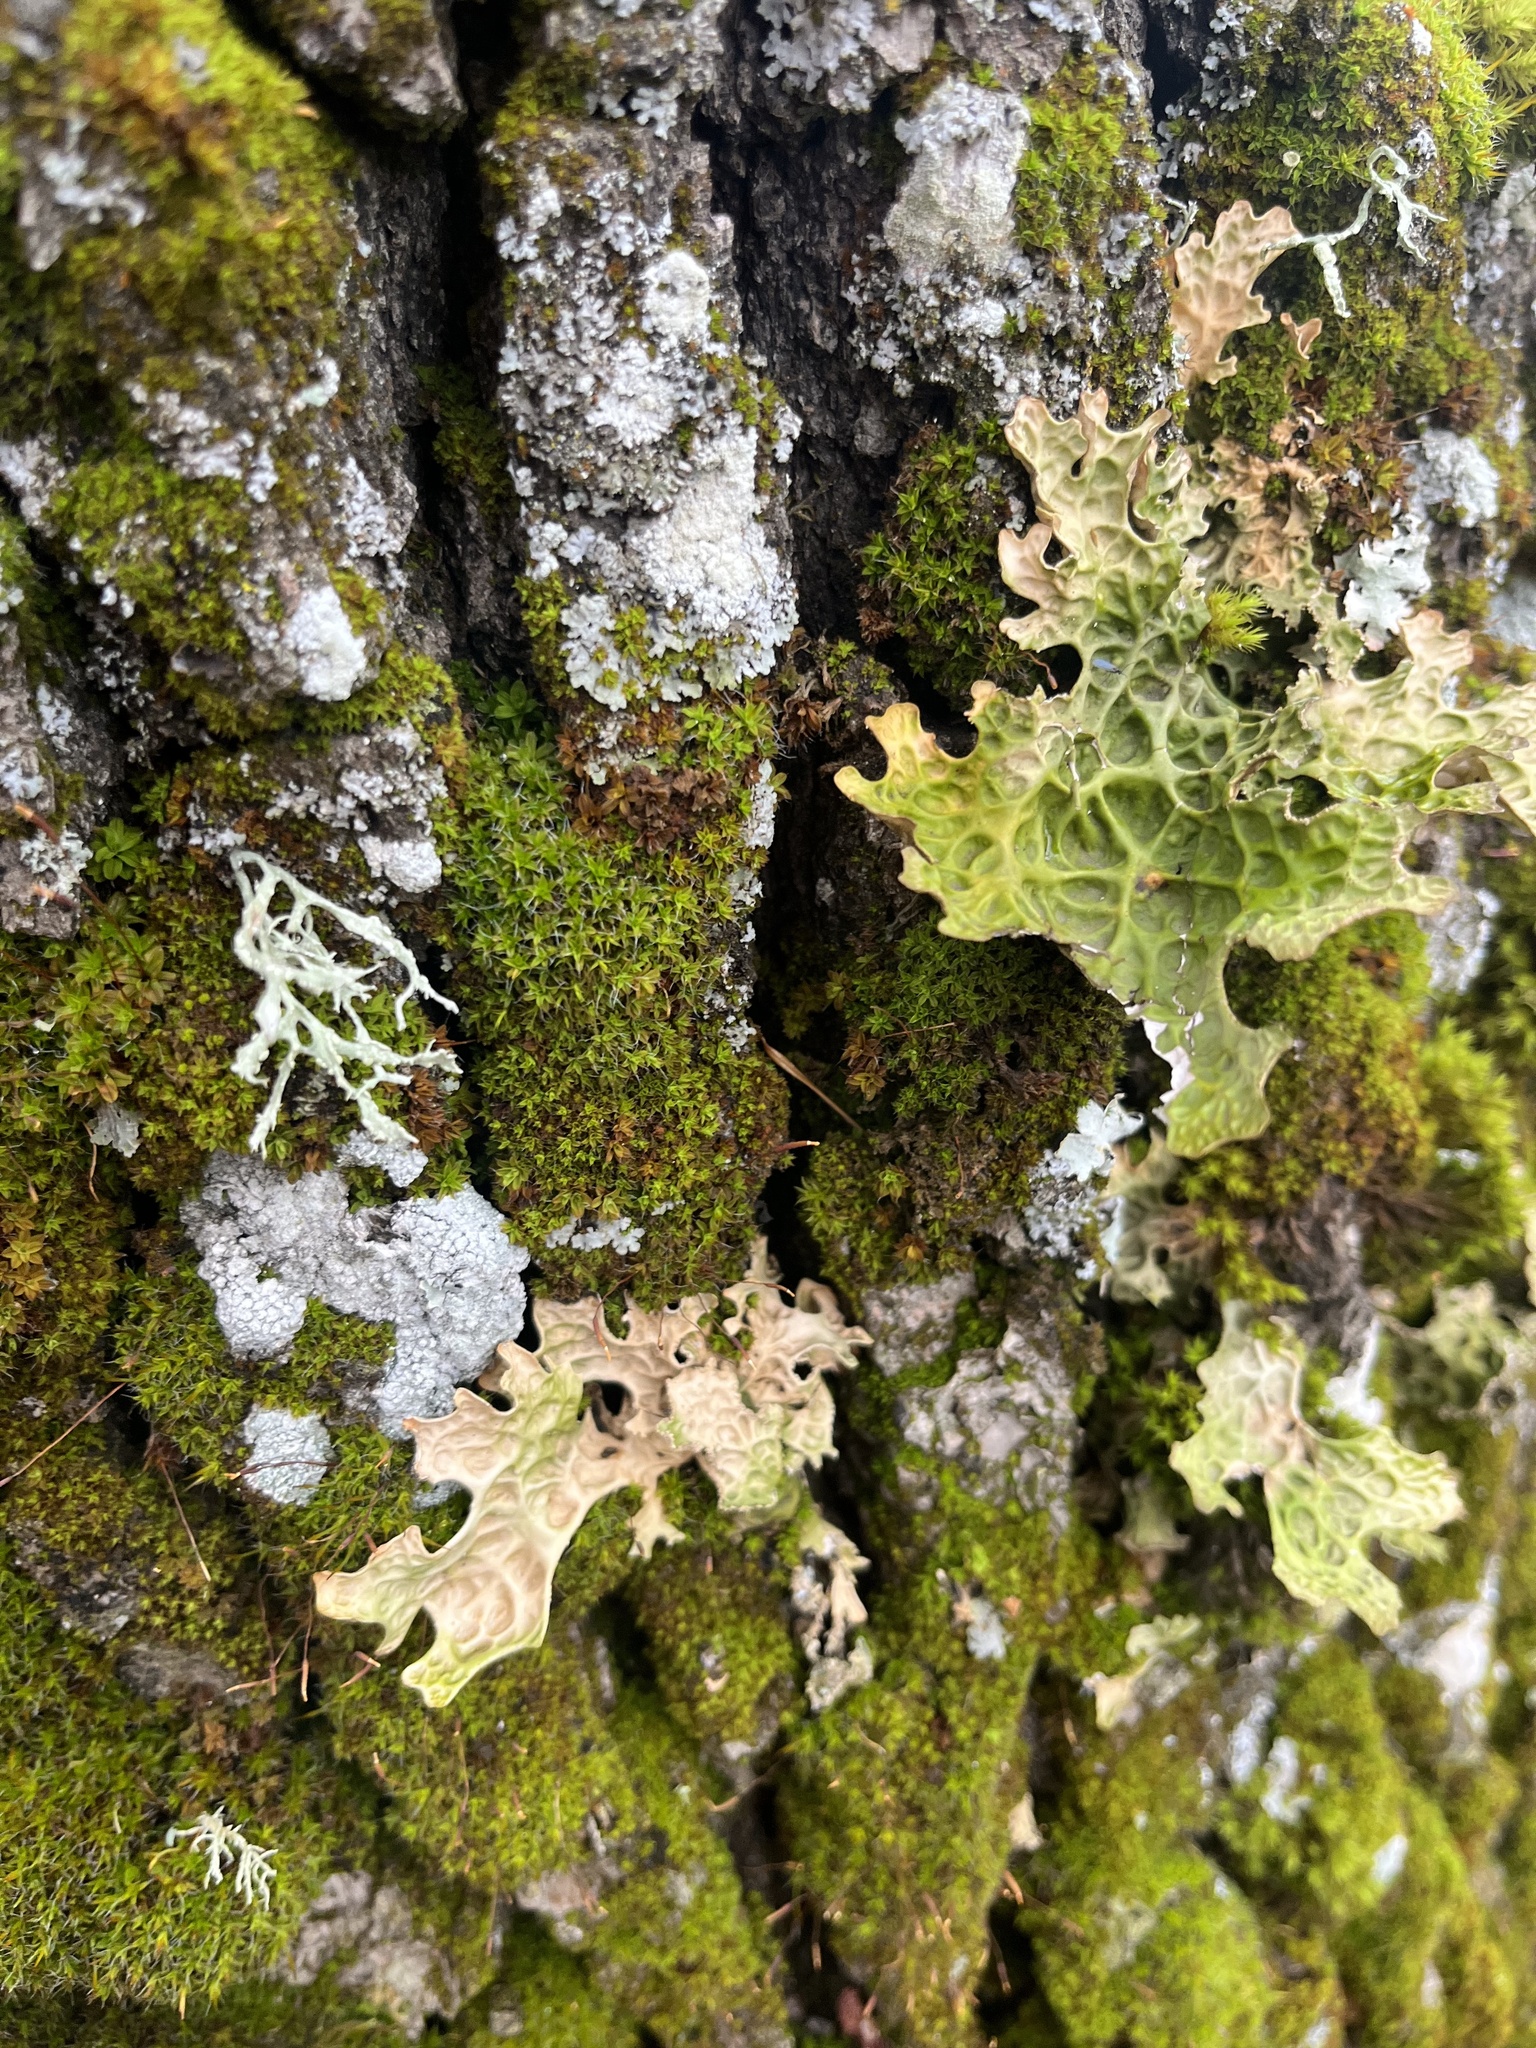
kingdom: Fungi
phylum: Ascomycota
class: Lecanoromycetes
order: Peltigerales
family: Lobariaceae
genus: Lobaria
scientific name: Lobaria pulmonaria
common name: Lungwort
